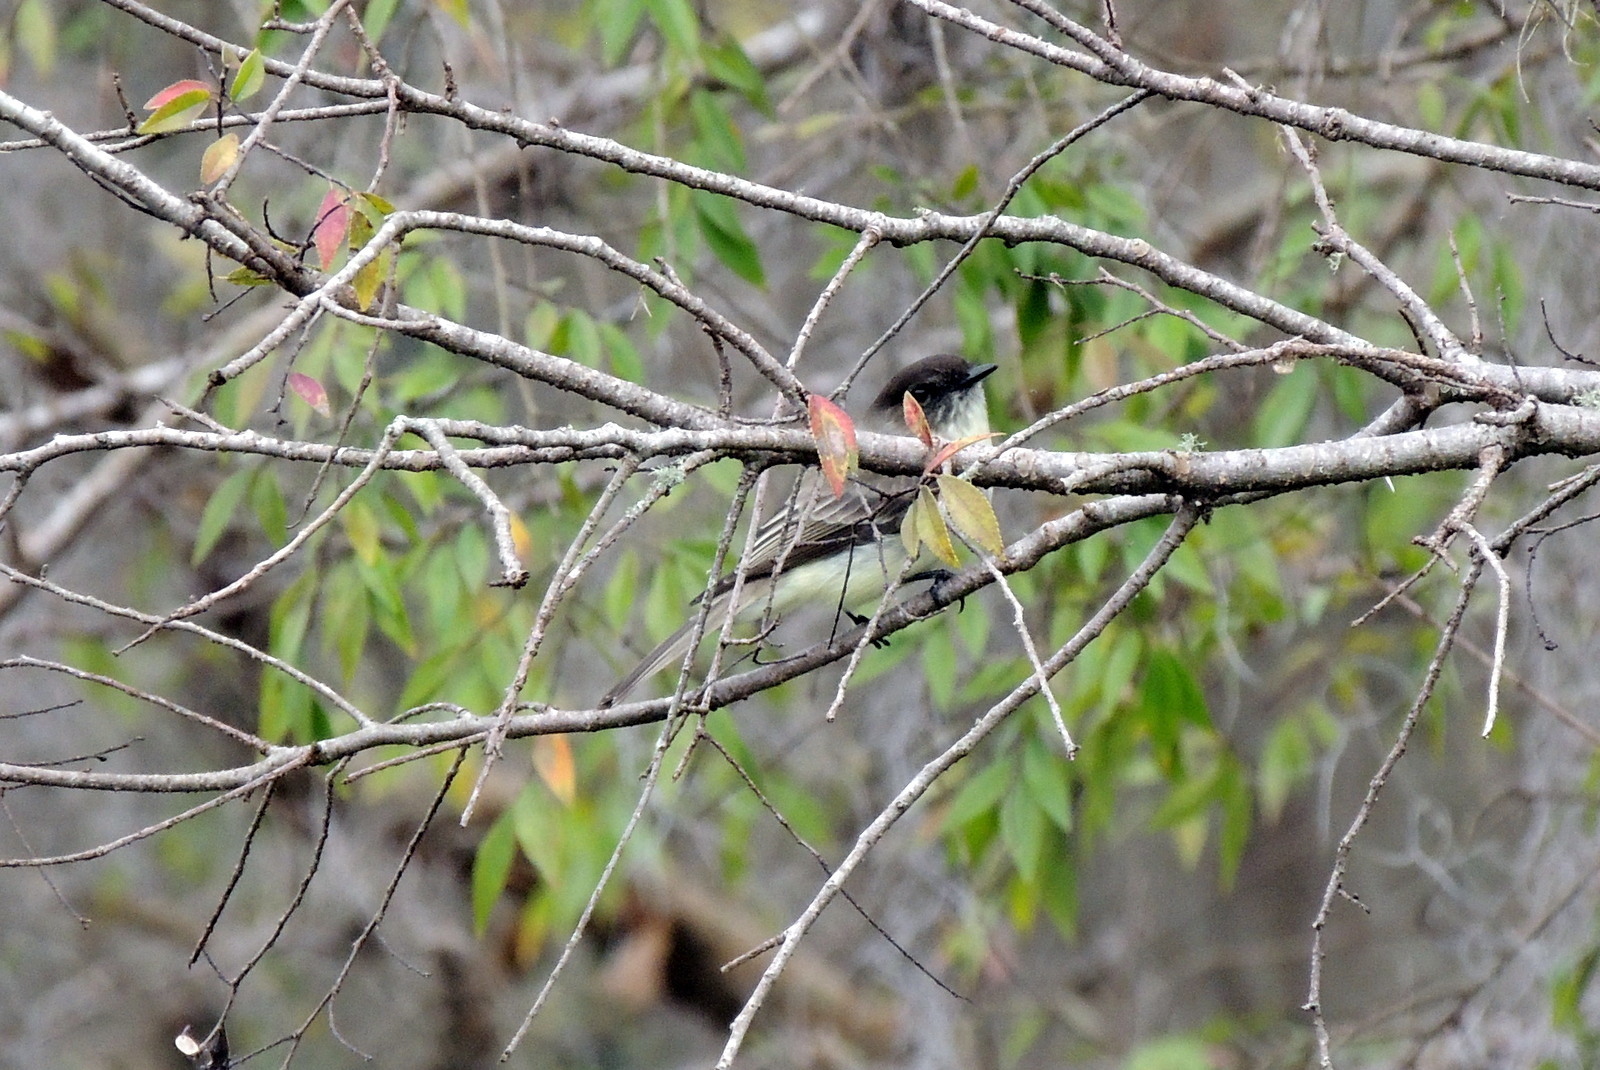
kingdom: Animalia
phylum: Chordata
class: Aves
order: Passeriformes
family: Tyrannidae
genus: Sayornis
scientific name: Sayornis phoebe
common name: Eastern phoebe
